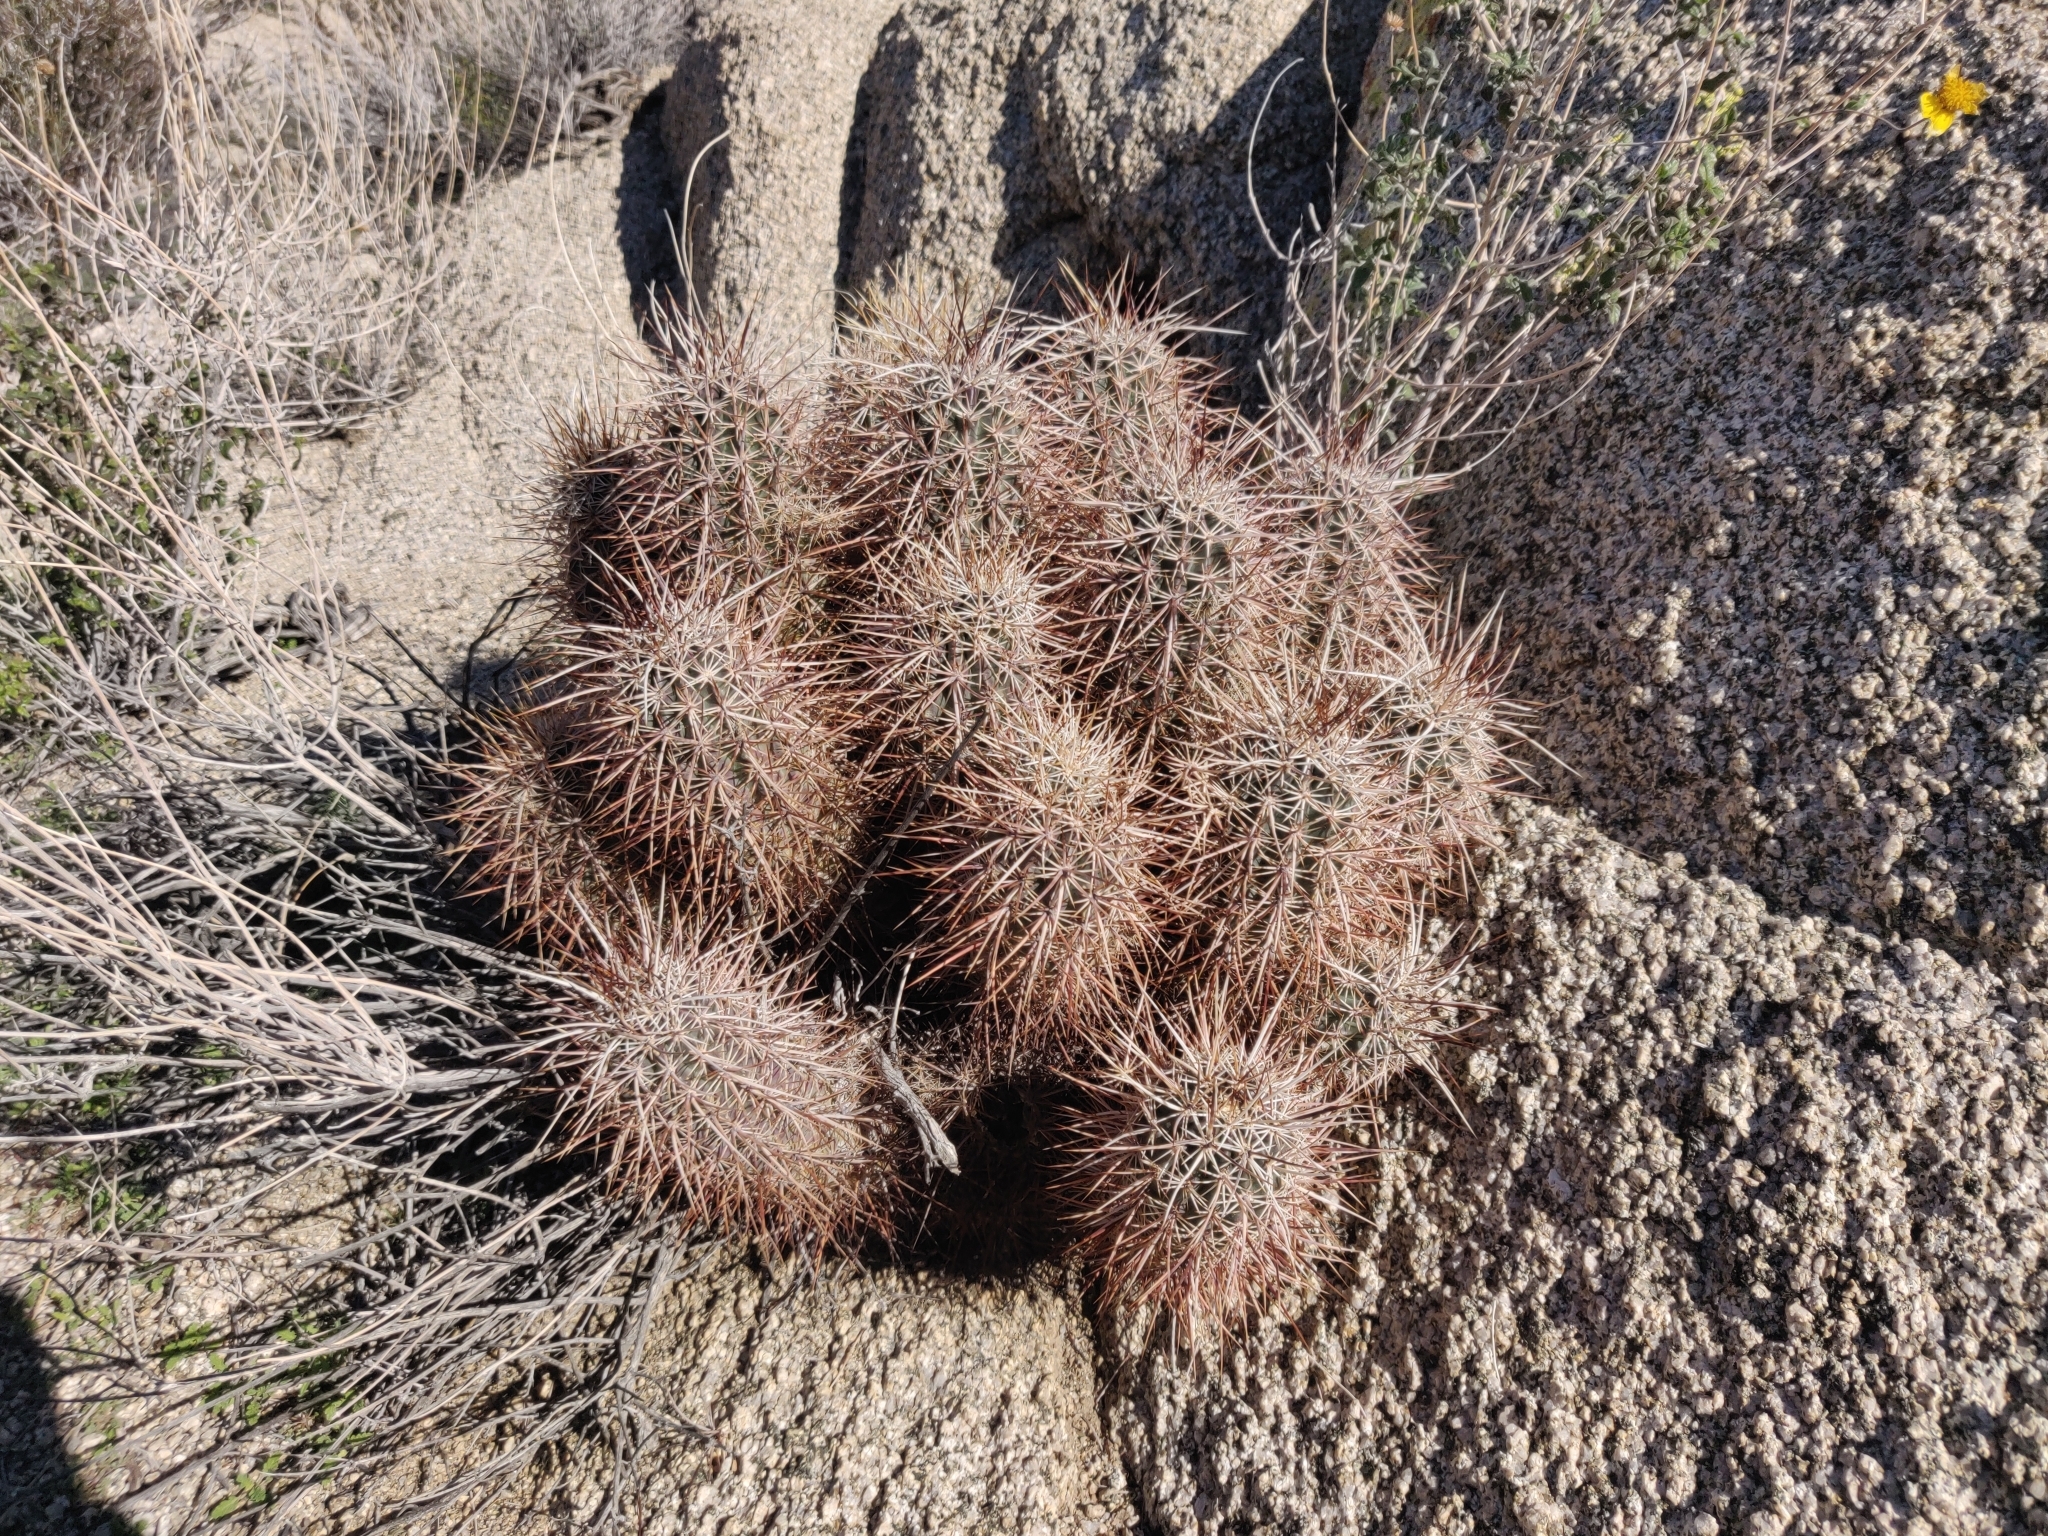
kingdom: Plantae
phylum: Tracheophyta
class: Magnoliopsida
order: Caryophyllales
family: Cactaceae
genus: Echinocereus
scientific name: Echinocereus engelmannii
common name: Engelmann's hedgehog cactus
